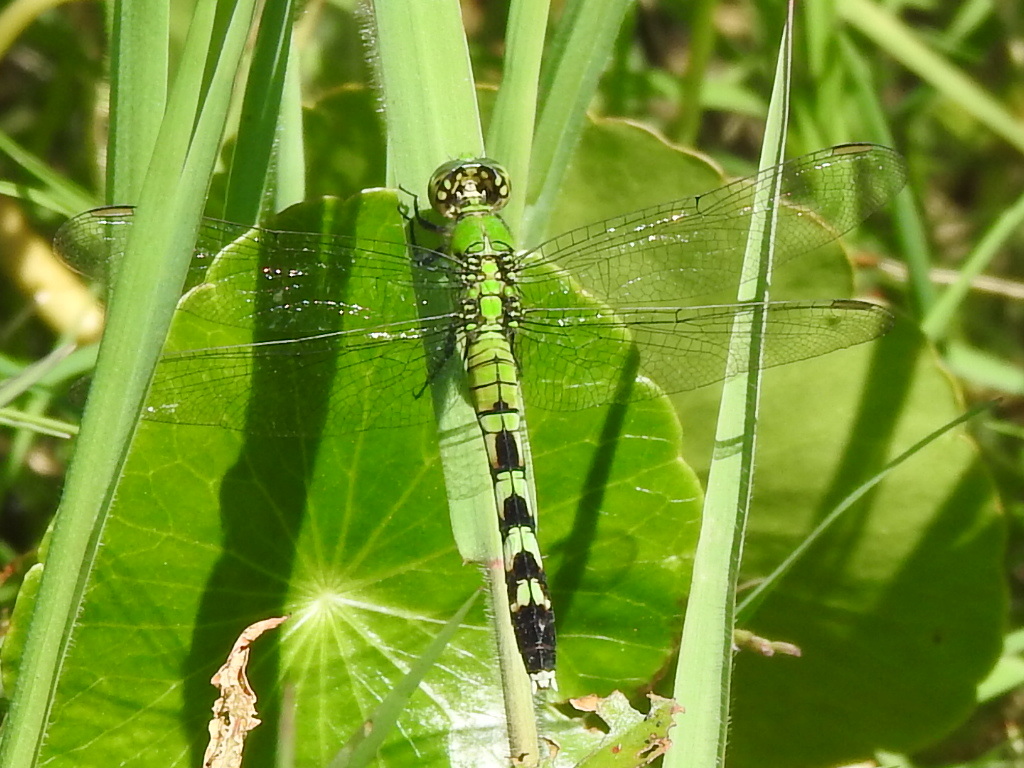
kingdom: Animalia
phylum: Arthropoda
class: Insecta
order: Odonata
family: Libellulidae
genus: Erythemis
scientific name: Erythemis simplicicollis
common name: Eastern pondhawk
